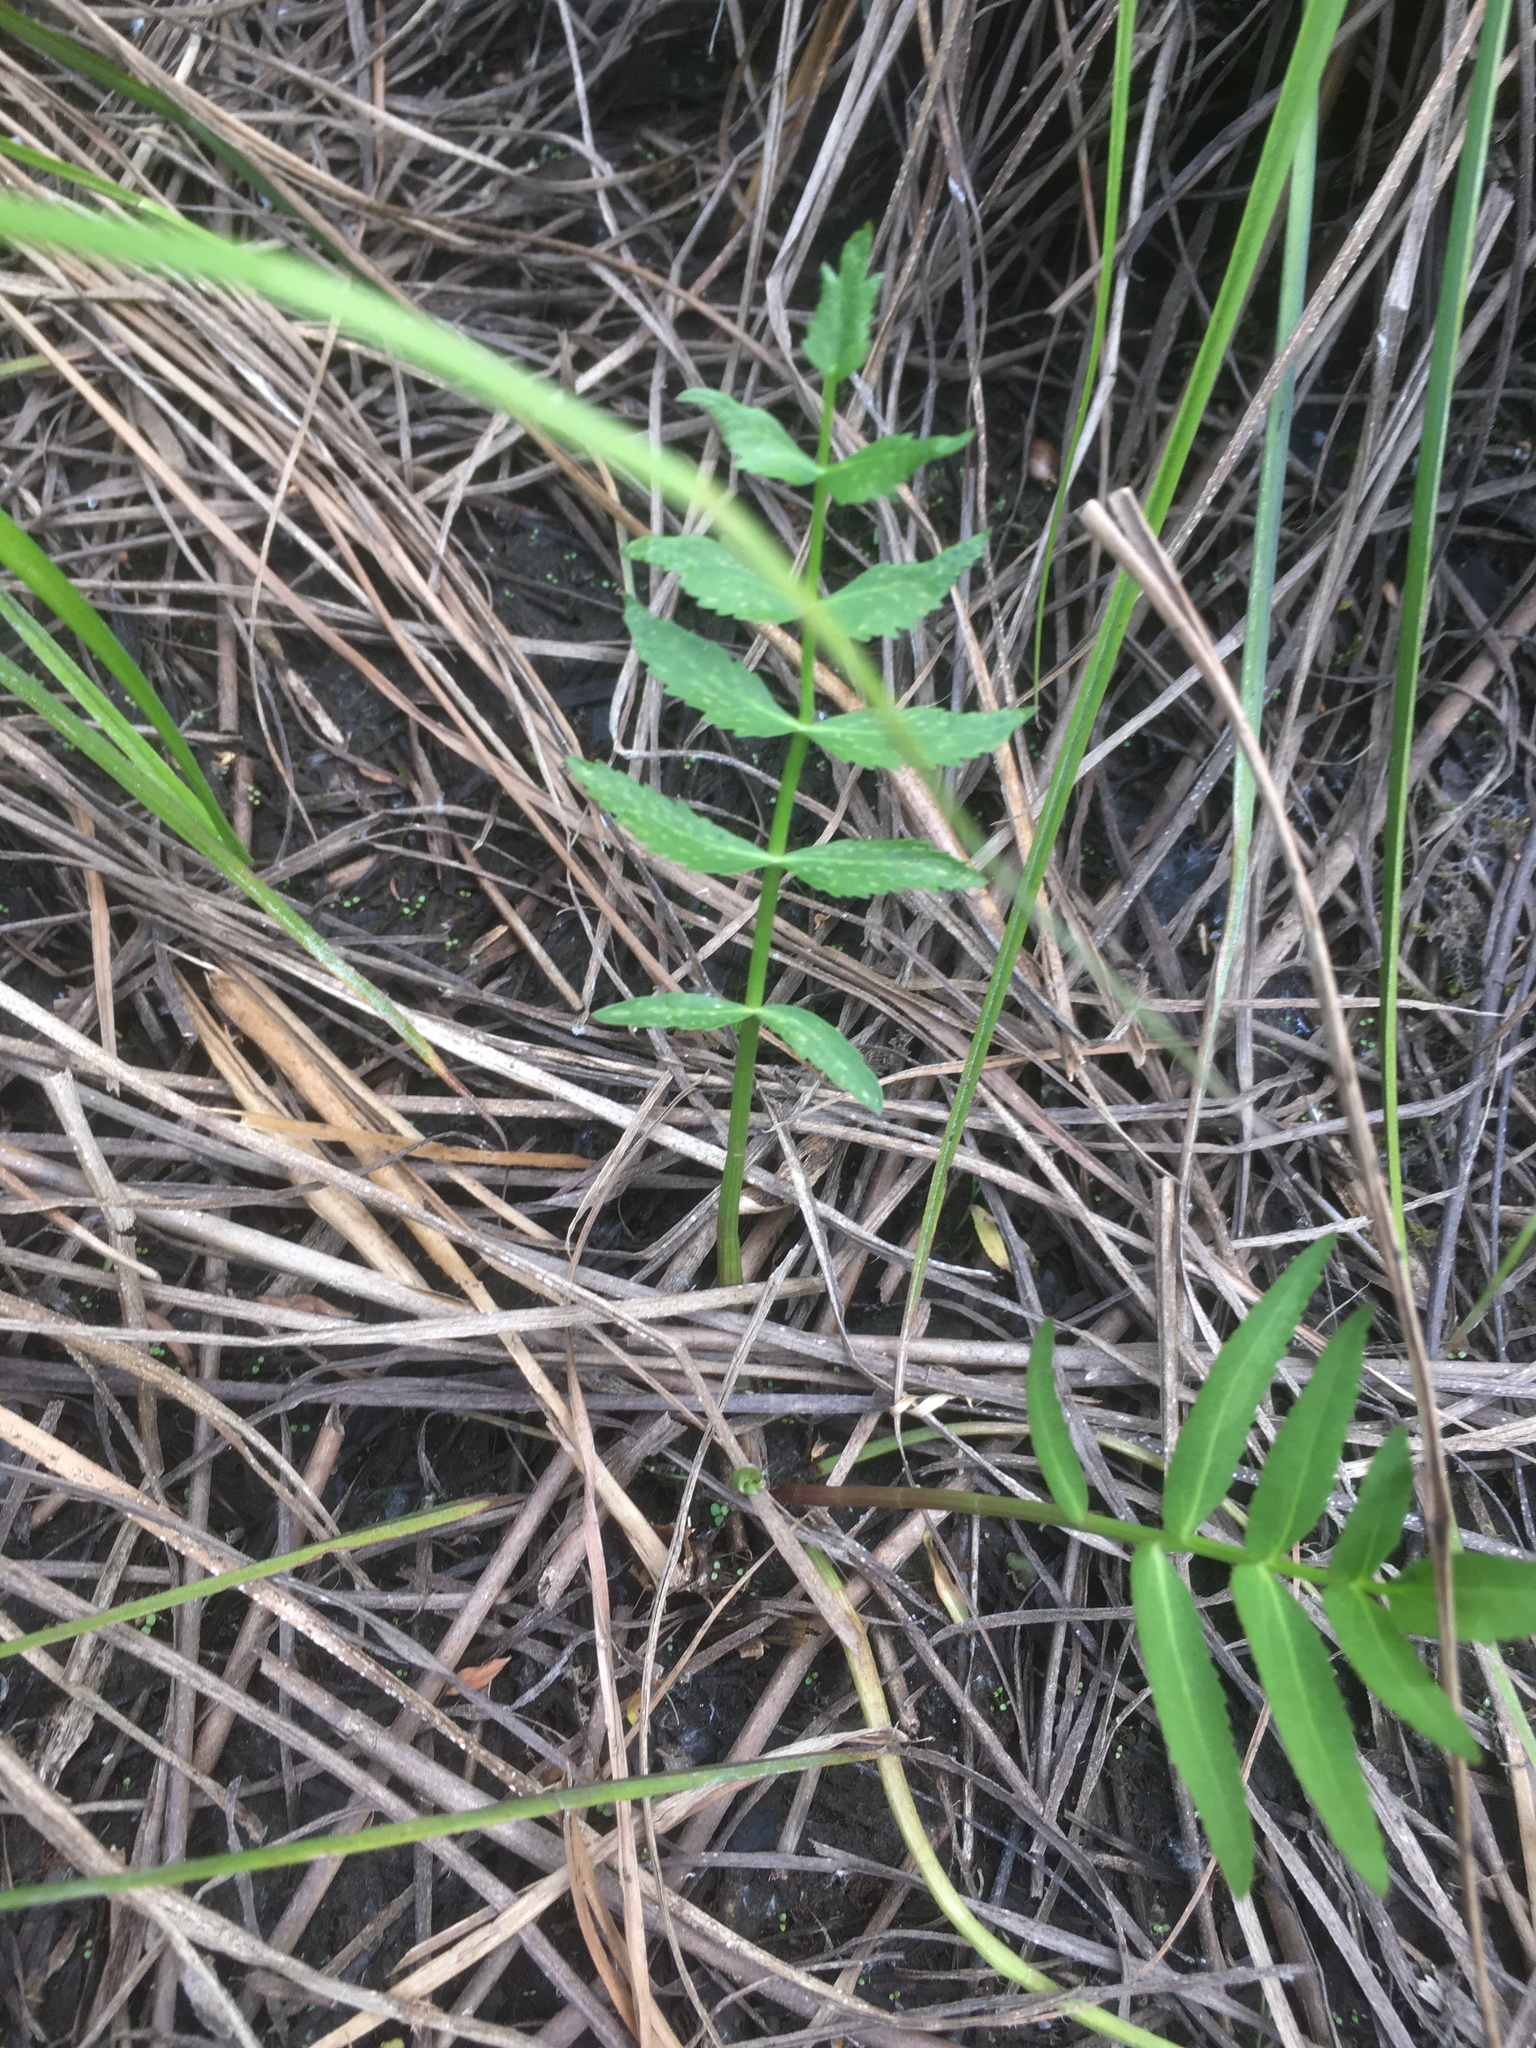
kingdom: Plantae
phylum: Tracheophyta
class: Magnoliopsida
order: Apiales
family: Apiaceae
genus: Sium
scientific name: Sium suave
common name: Hemlock water-parsnip
